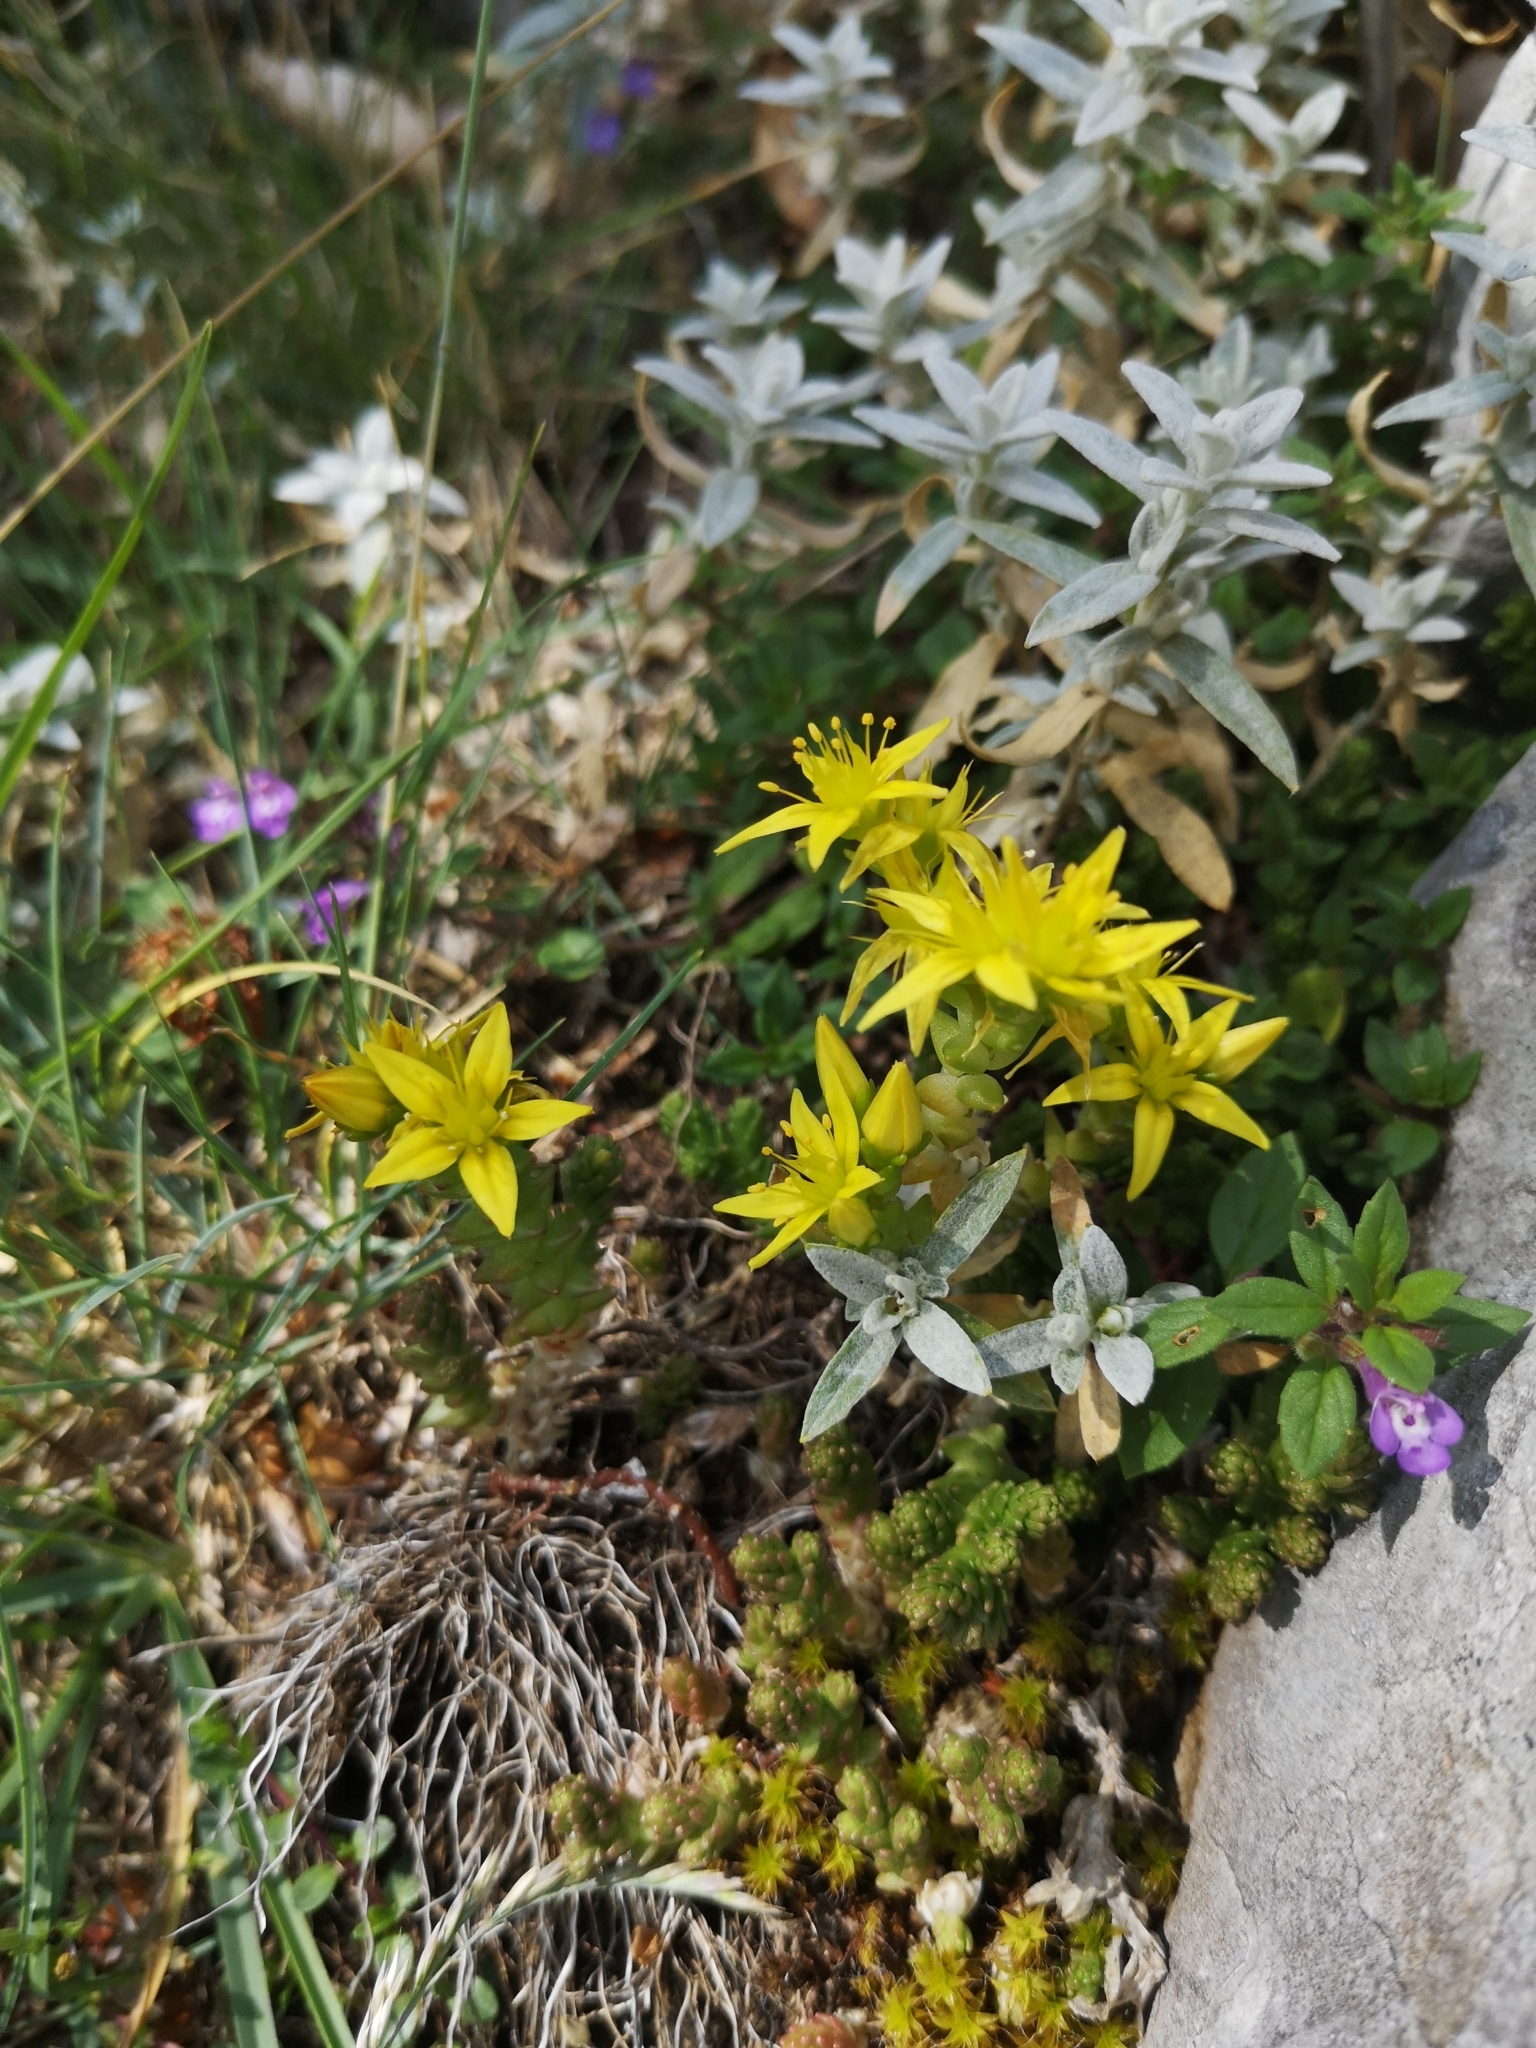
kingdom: Plantae
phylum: Tracheophyta
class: Magnoliopsida
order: Saxifragales
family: Crassulaceae
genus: Sedum
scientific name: Sedum acre
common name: Biting stonecrop
